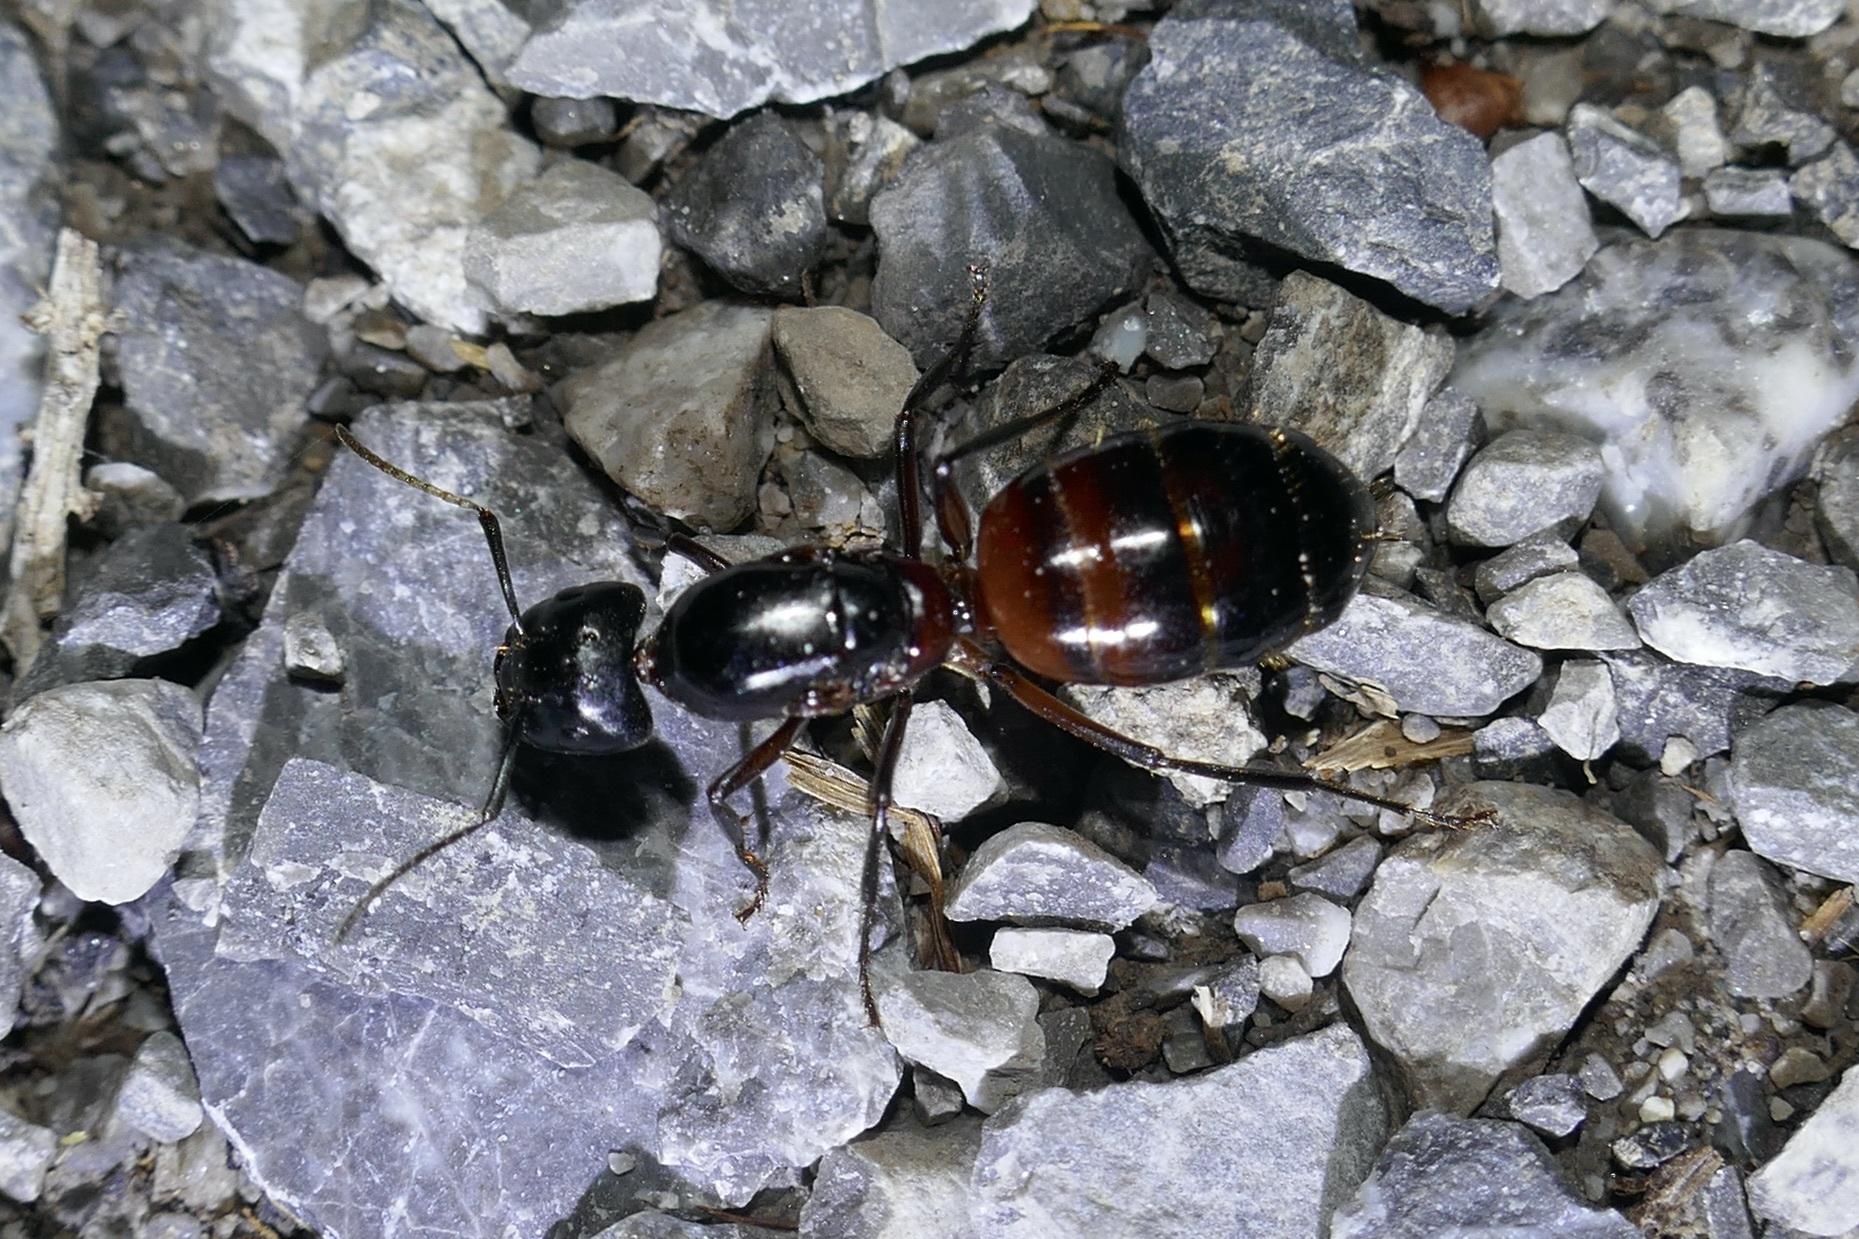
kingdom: Animalia
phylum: Arthropoda
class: Insecta
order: Hymenoptera
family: Formicidae
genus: Camponotus
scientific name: Camponotus ligniperdus
